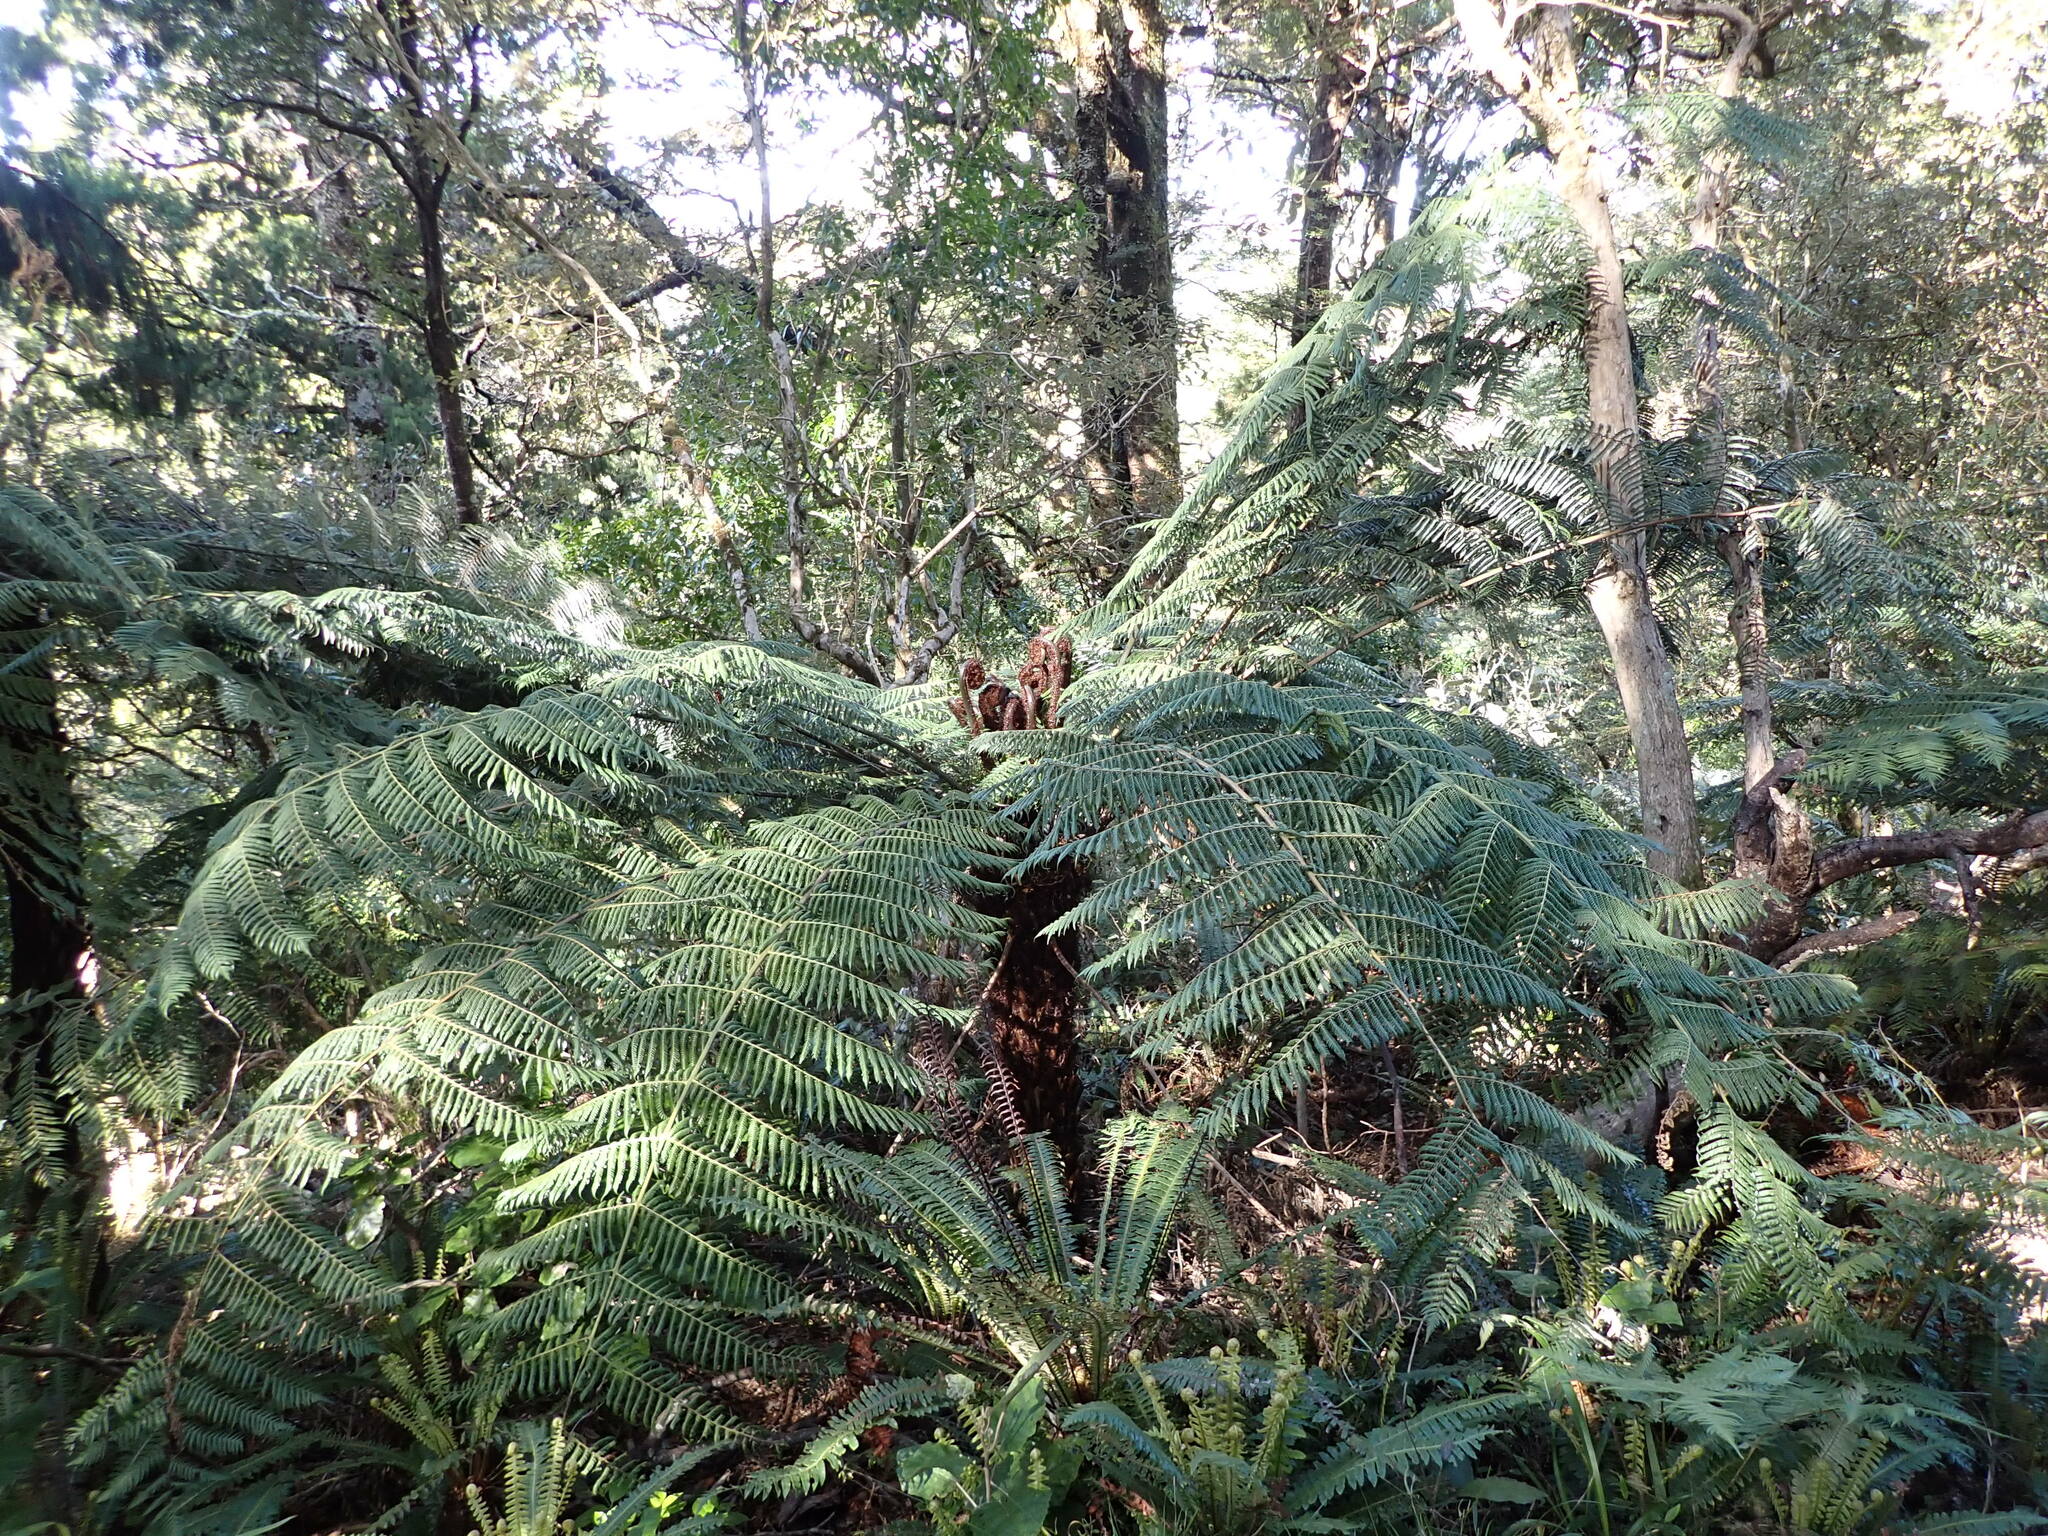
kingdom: Plantae
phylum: Tracheophyta
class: Polypodiopsida
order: Cyatheales
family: Cyatheaceae
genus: Alsophila
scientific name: Alsophila dealbata
